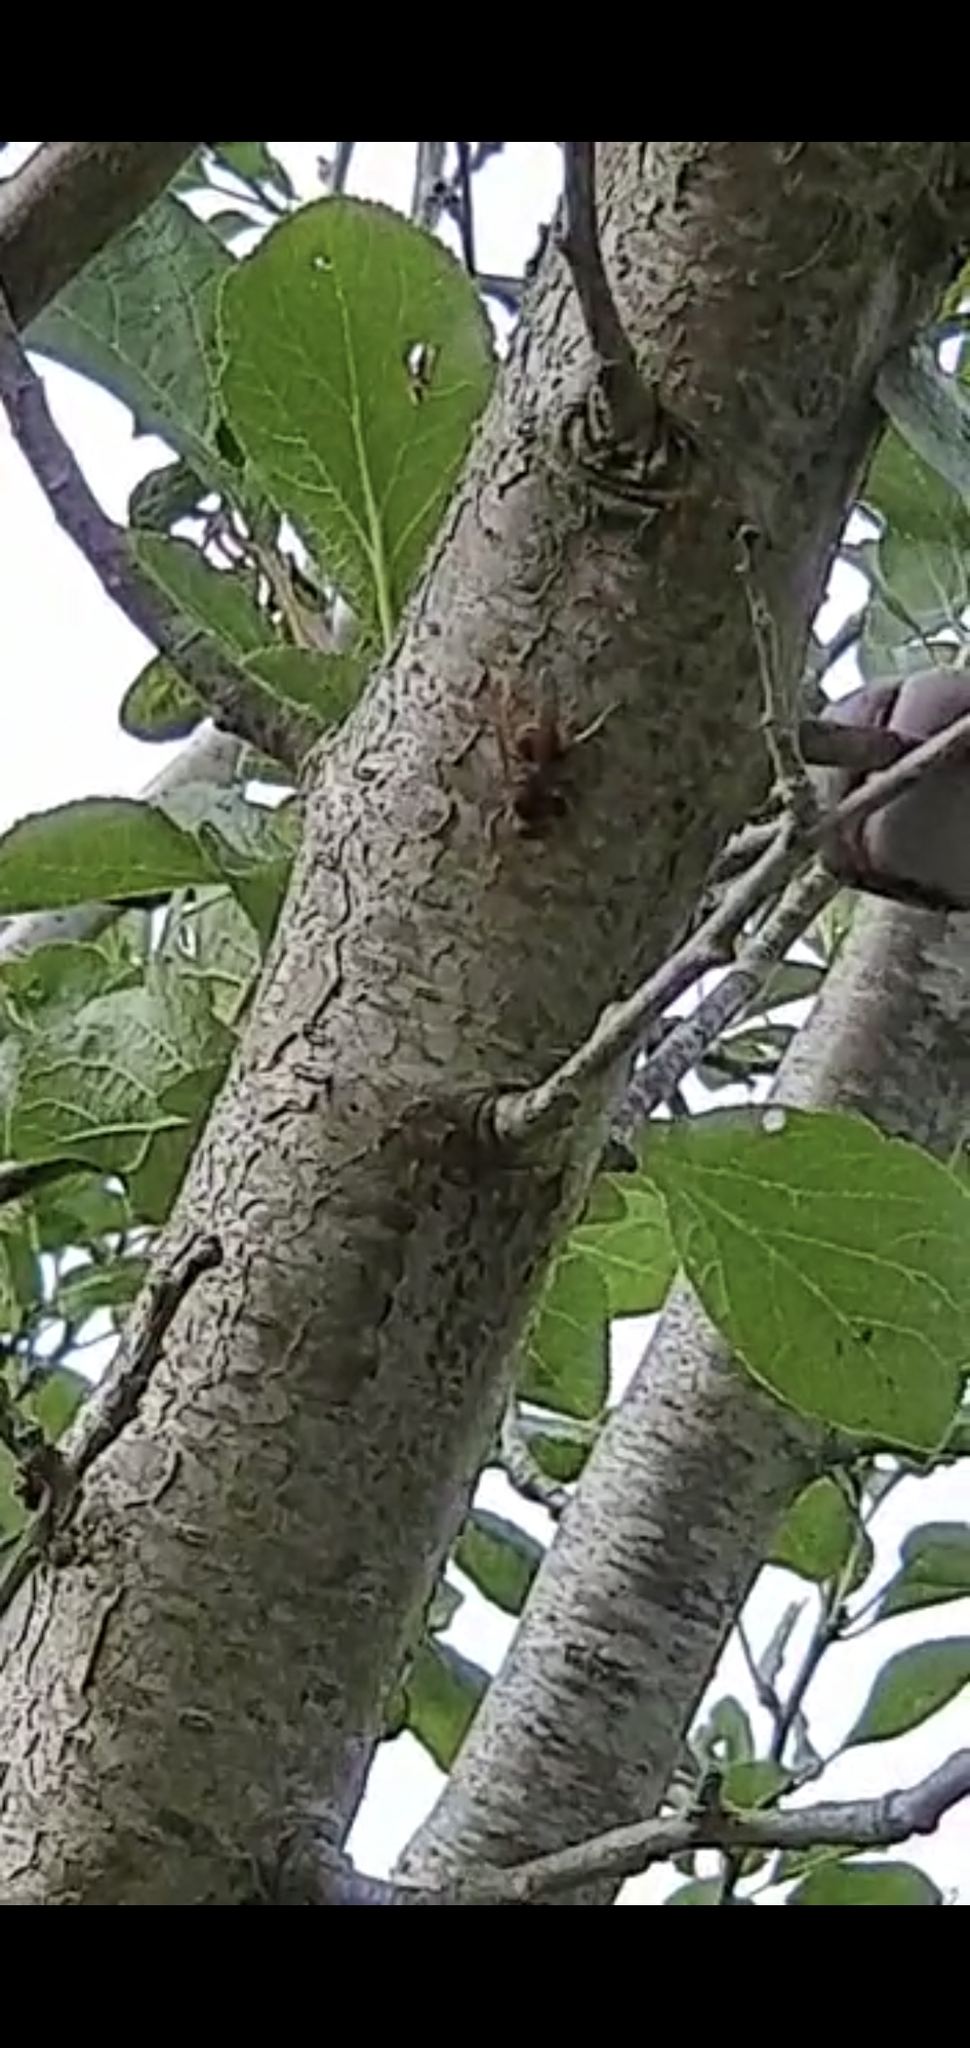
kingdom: Animalia
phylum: Arthropoda
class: Insecta
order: Hymenoptera
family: Vespidae
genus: Vespa
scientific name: Vespa velutina
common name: Asian hornet
